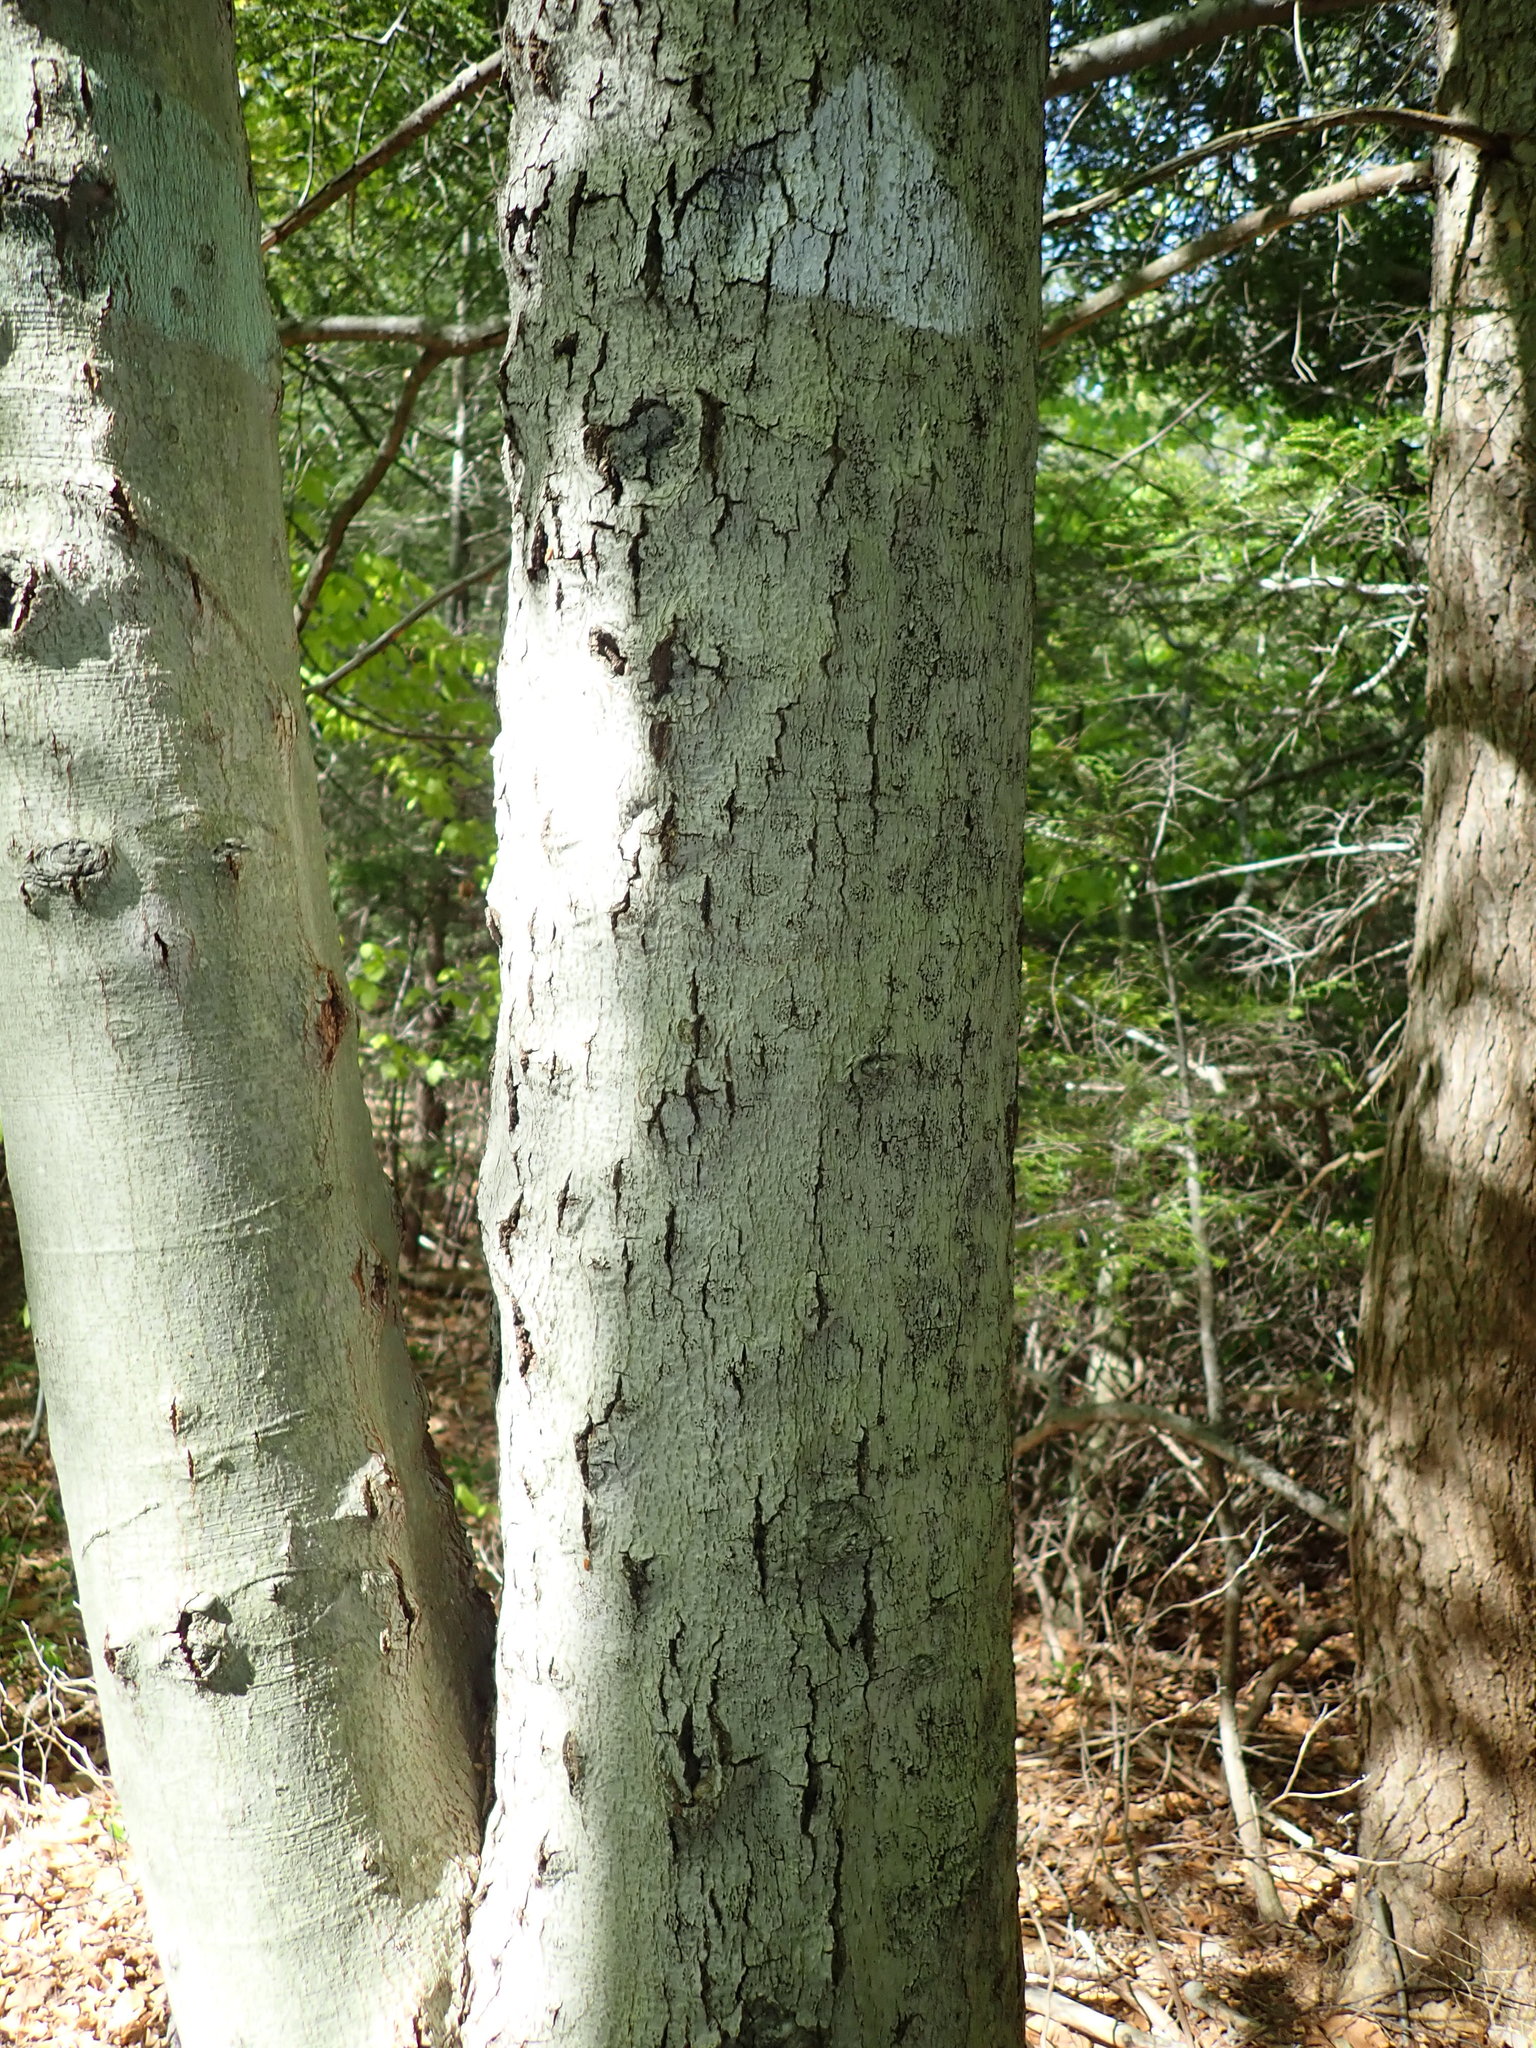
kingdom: Fungi
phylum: Ascomycota
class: Sordariomycetes
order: Hypocreales
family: Nectriaceae
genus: Neonectria
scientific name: Neonectria faginata
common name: Beech bark canker
